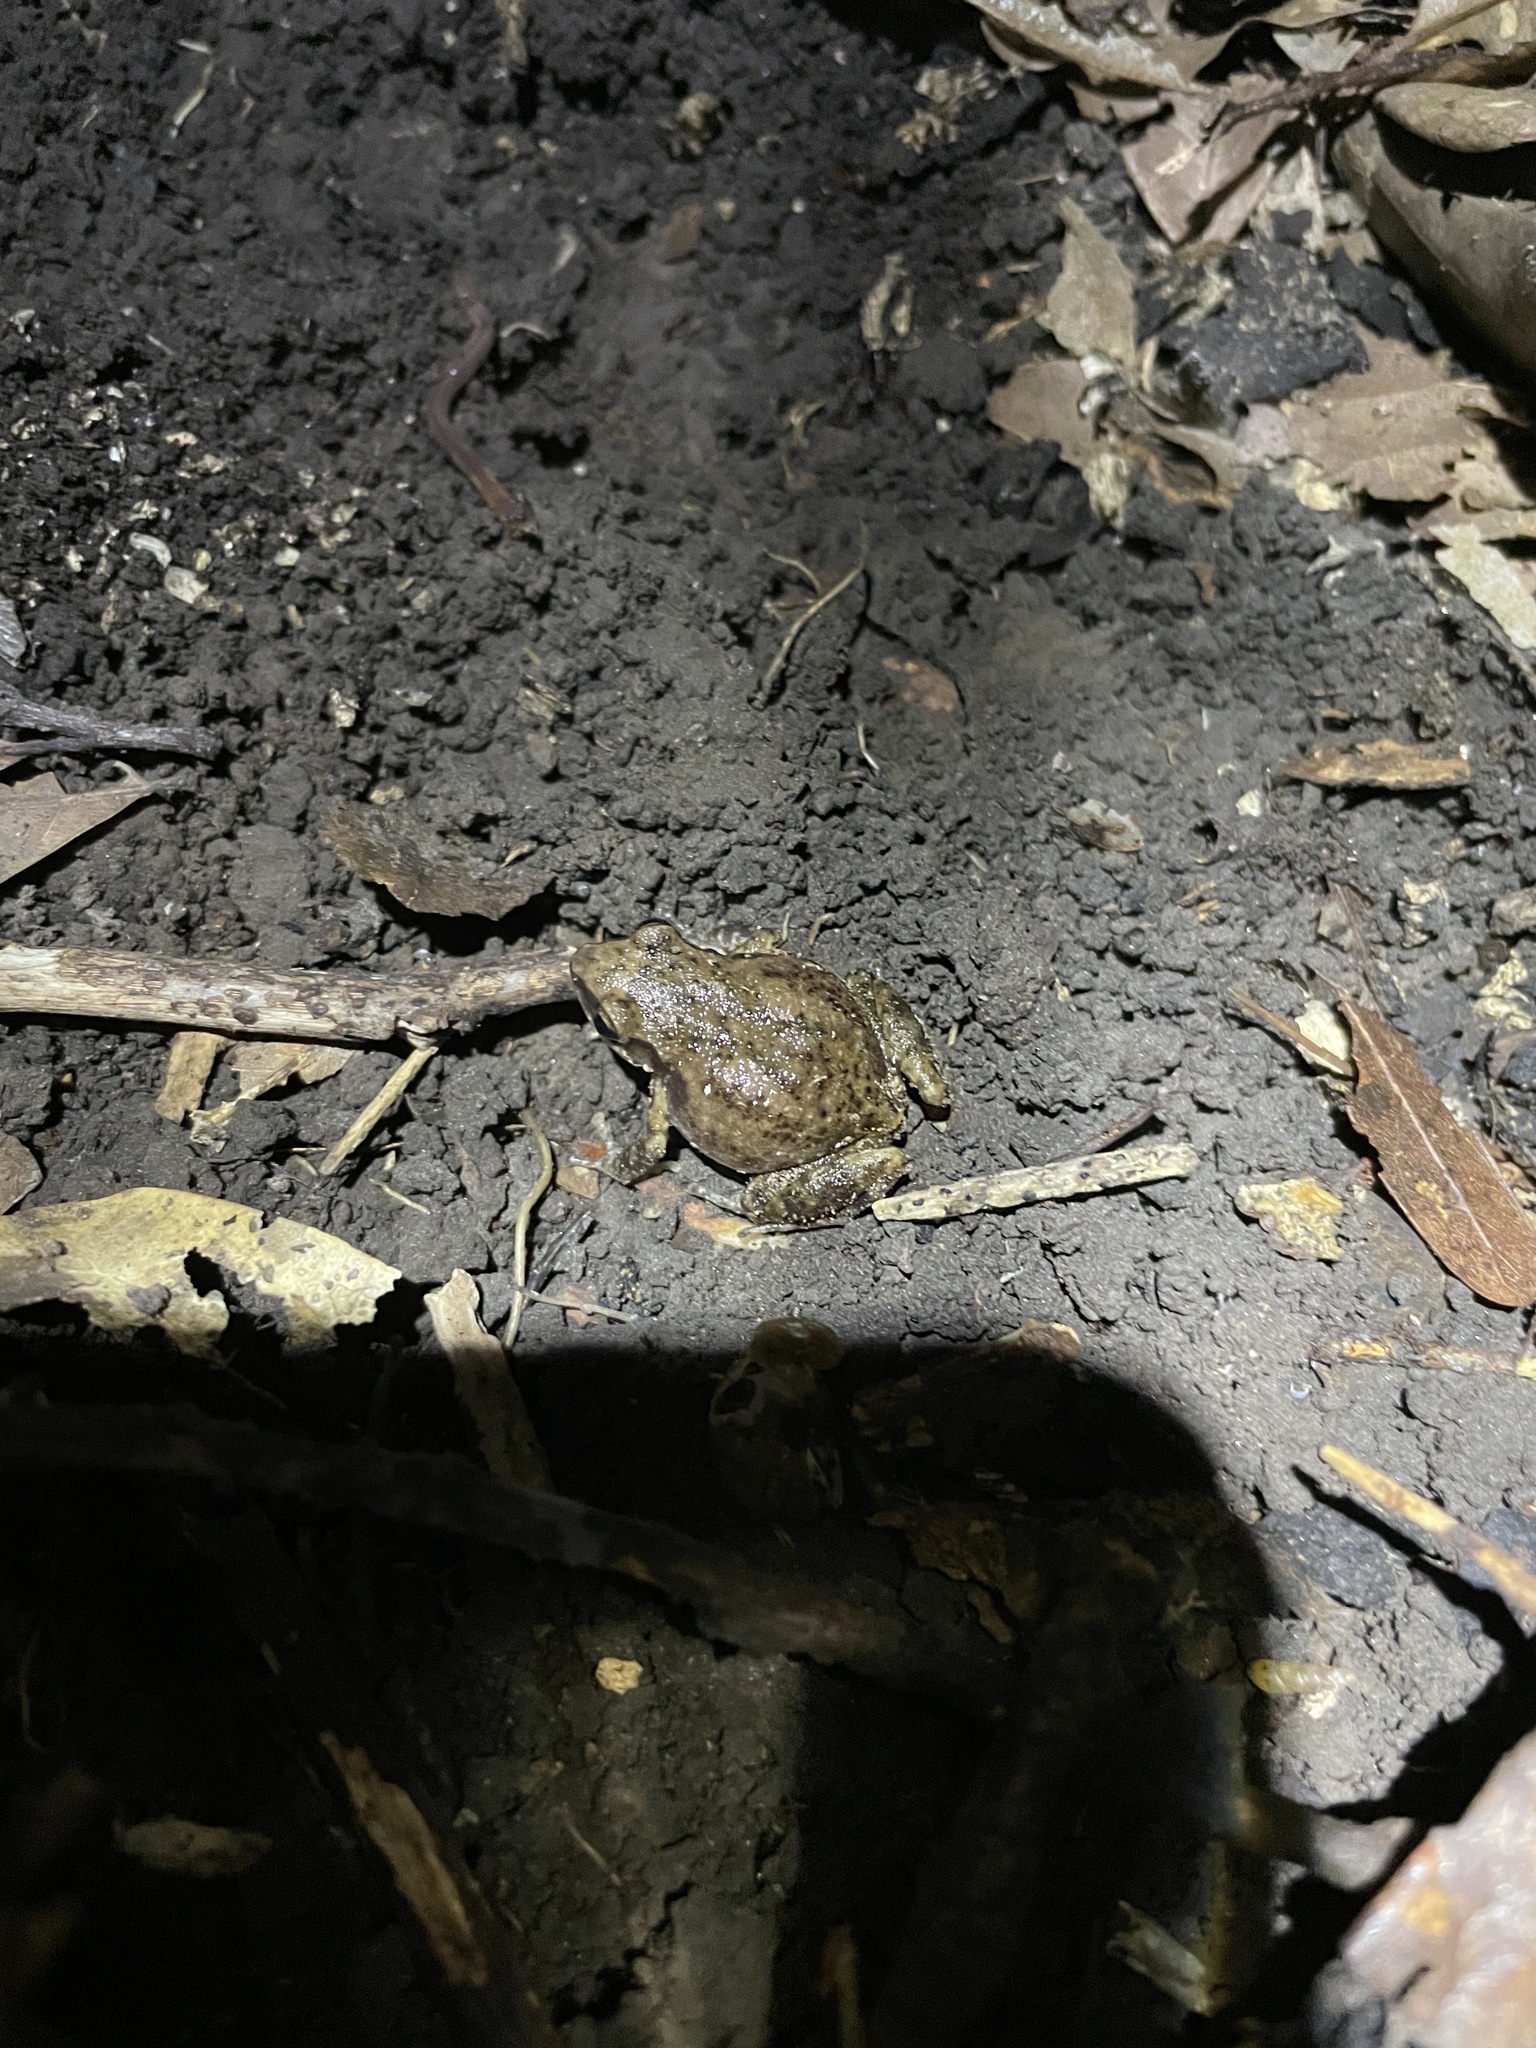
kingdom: Animalia
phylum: Chordata
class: Amphibia
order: Anura
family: Eleutherodactylidae
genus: Eleutherodactylus
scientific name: Eleutherodactylus campi
